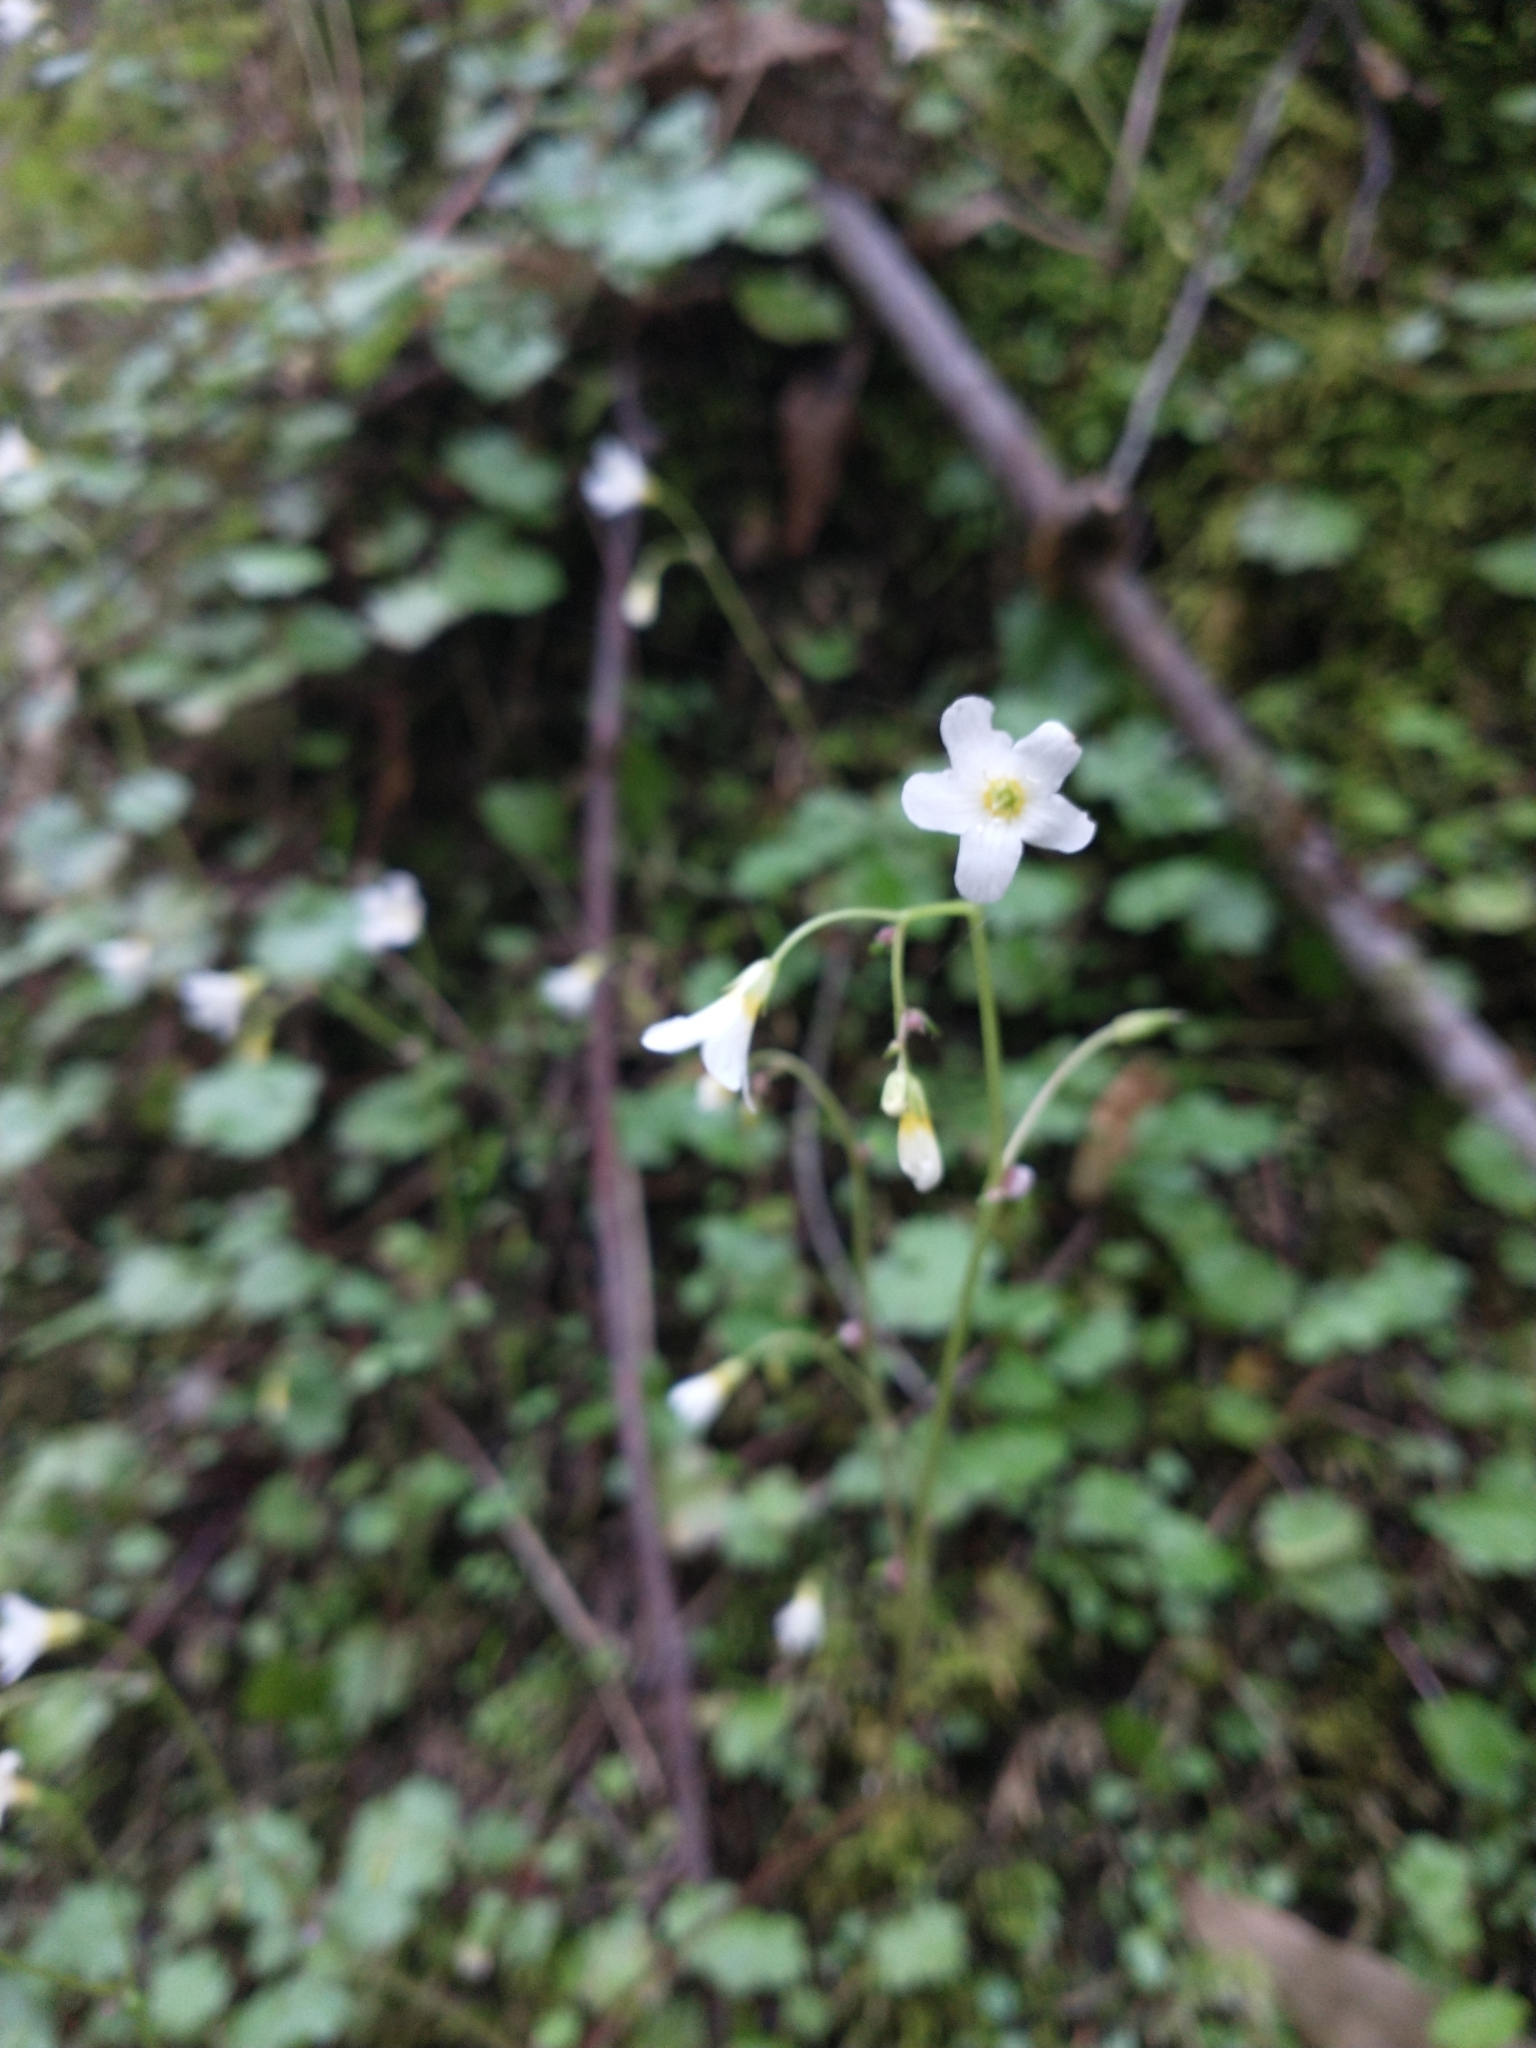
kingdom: Plantae
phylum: Tracheophyta
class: Magnoliopsida
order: Boraginales
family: Hydrophyllaceae
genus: Romanzoffia
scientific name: Romanzoffia californica
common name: California mistmaiden
